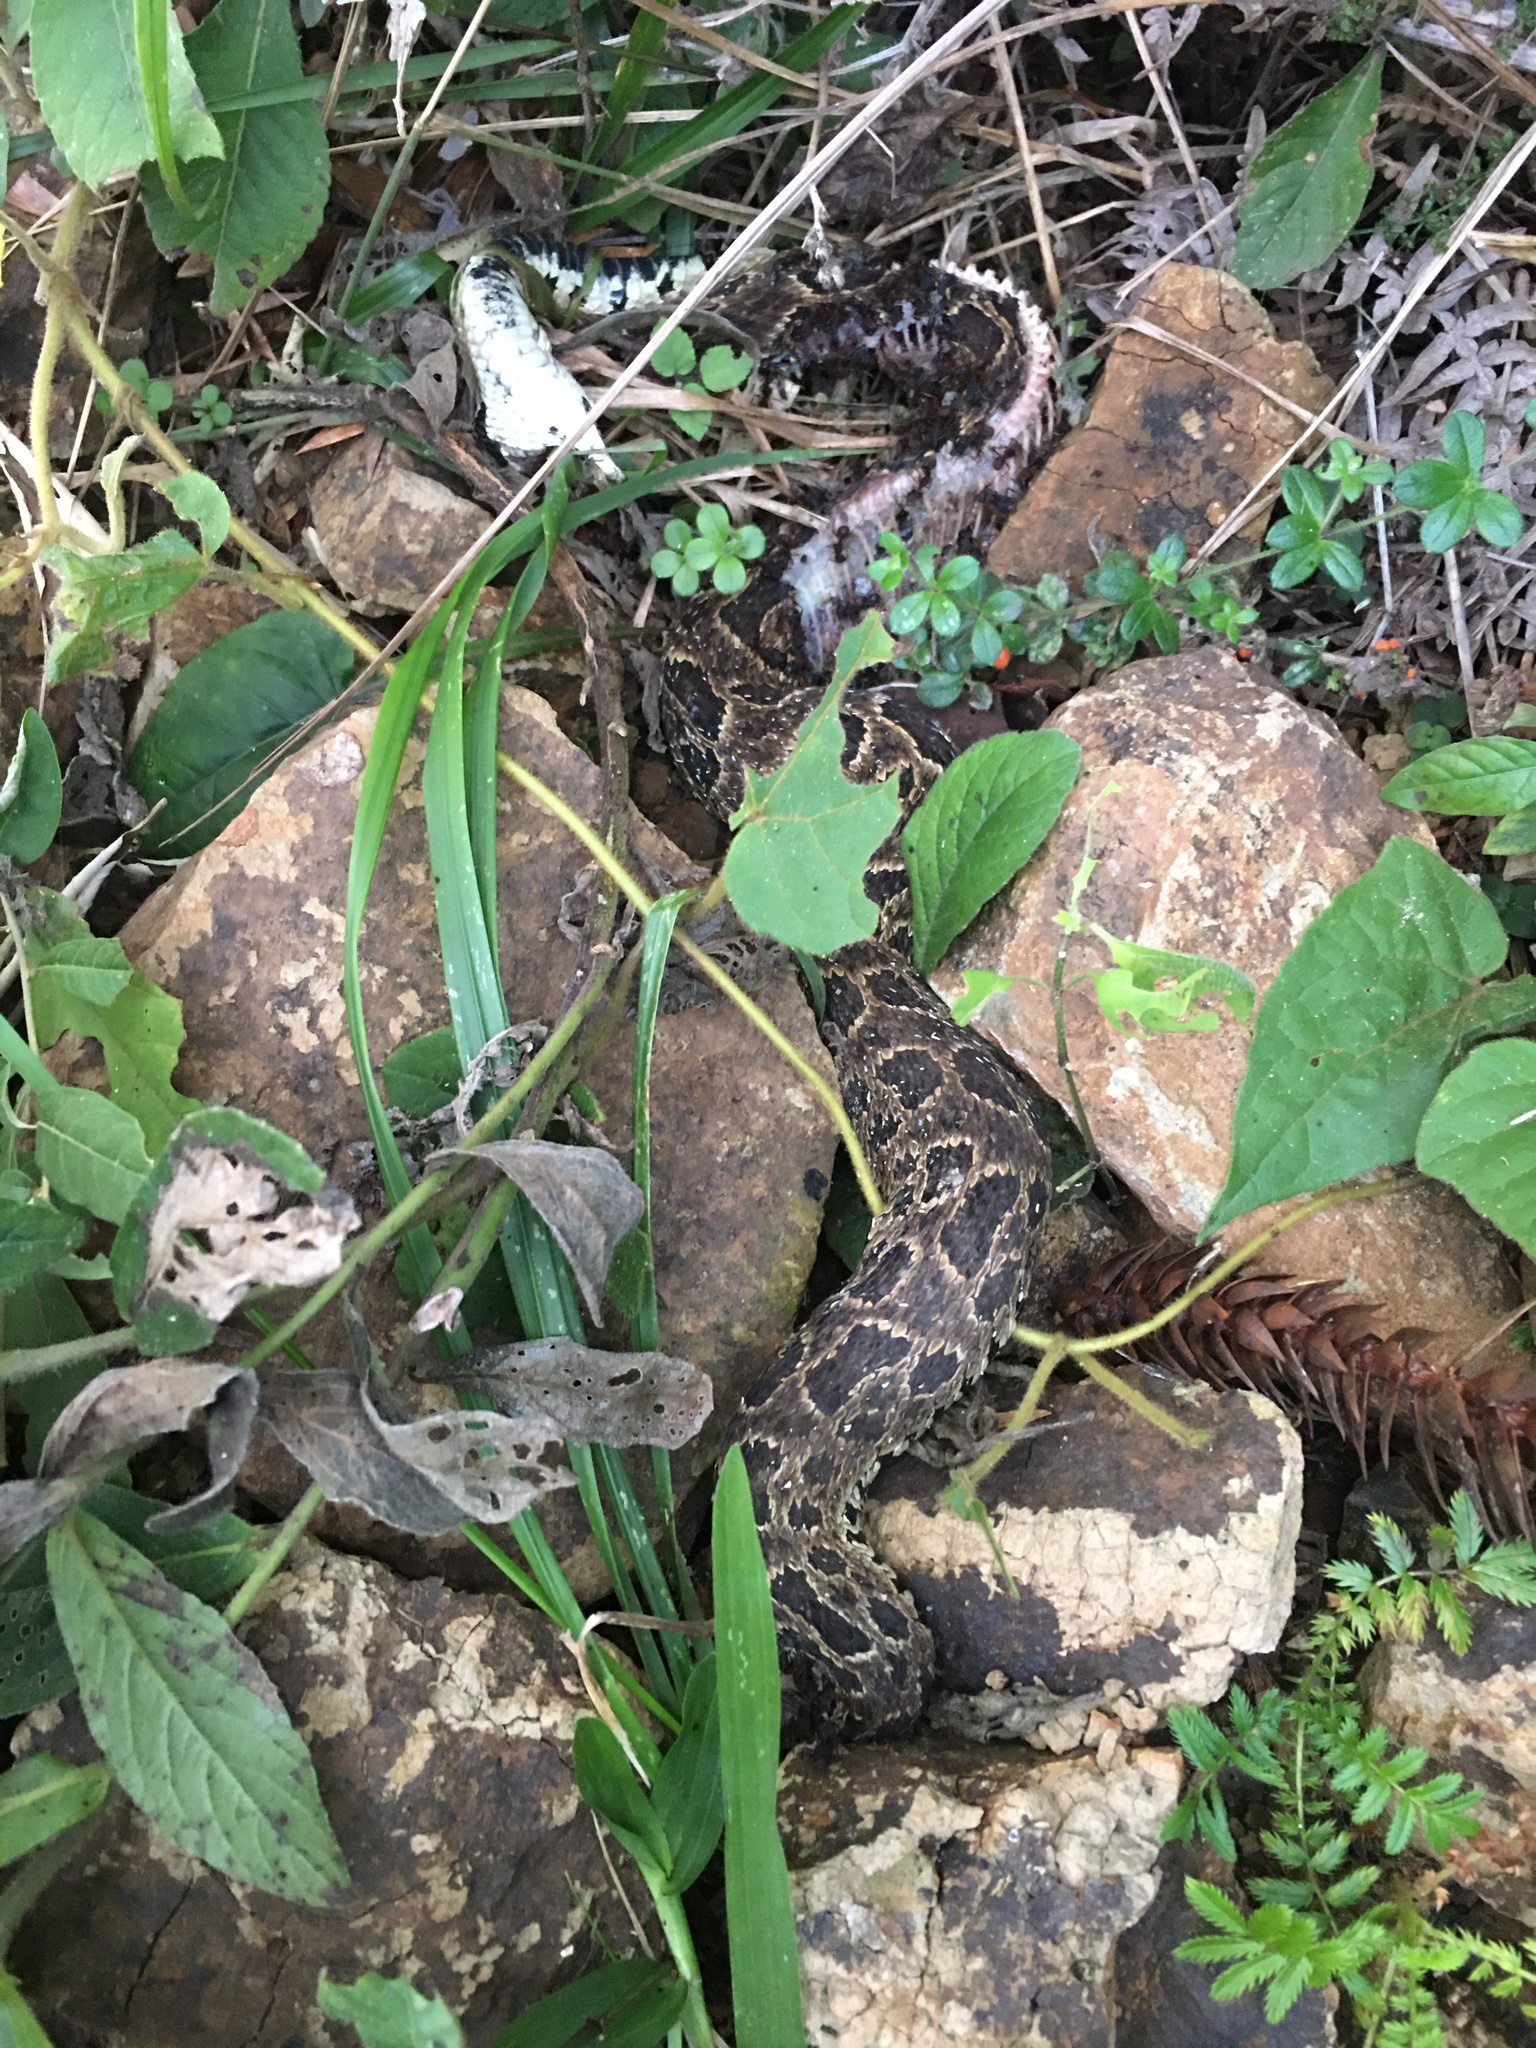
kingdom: Animalia
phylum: Chordata
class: Squamata
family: Viperidae
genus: Bothrops
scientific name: Bothrops cotiara
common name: Cotiara
